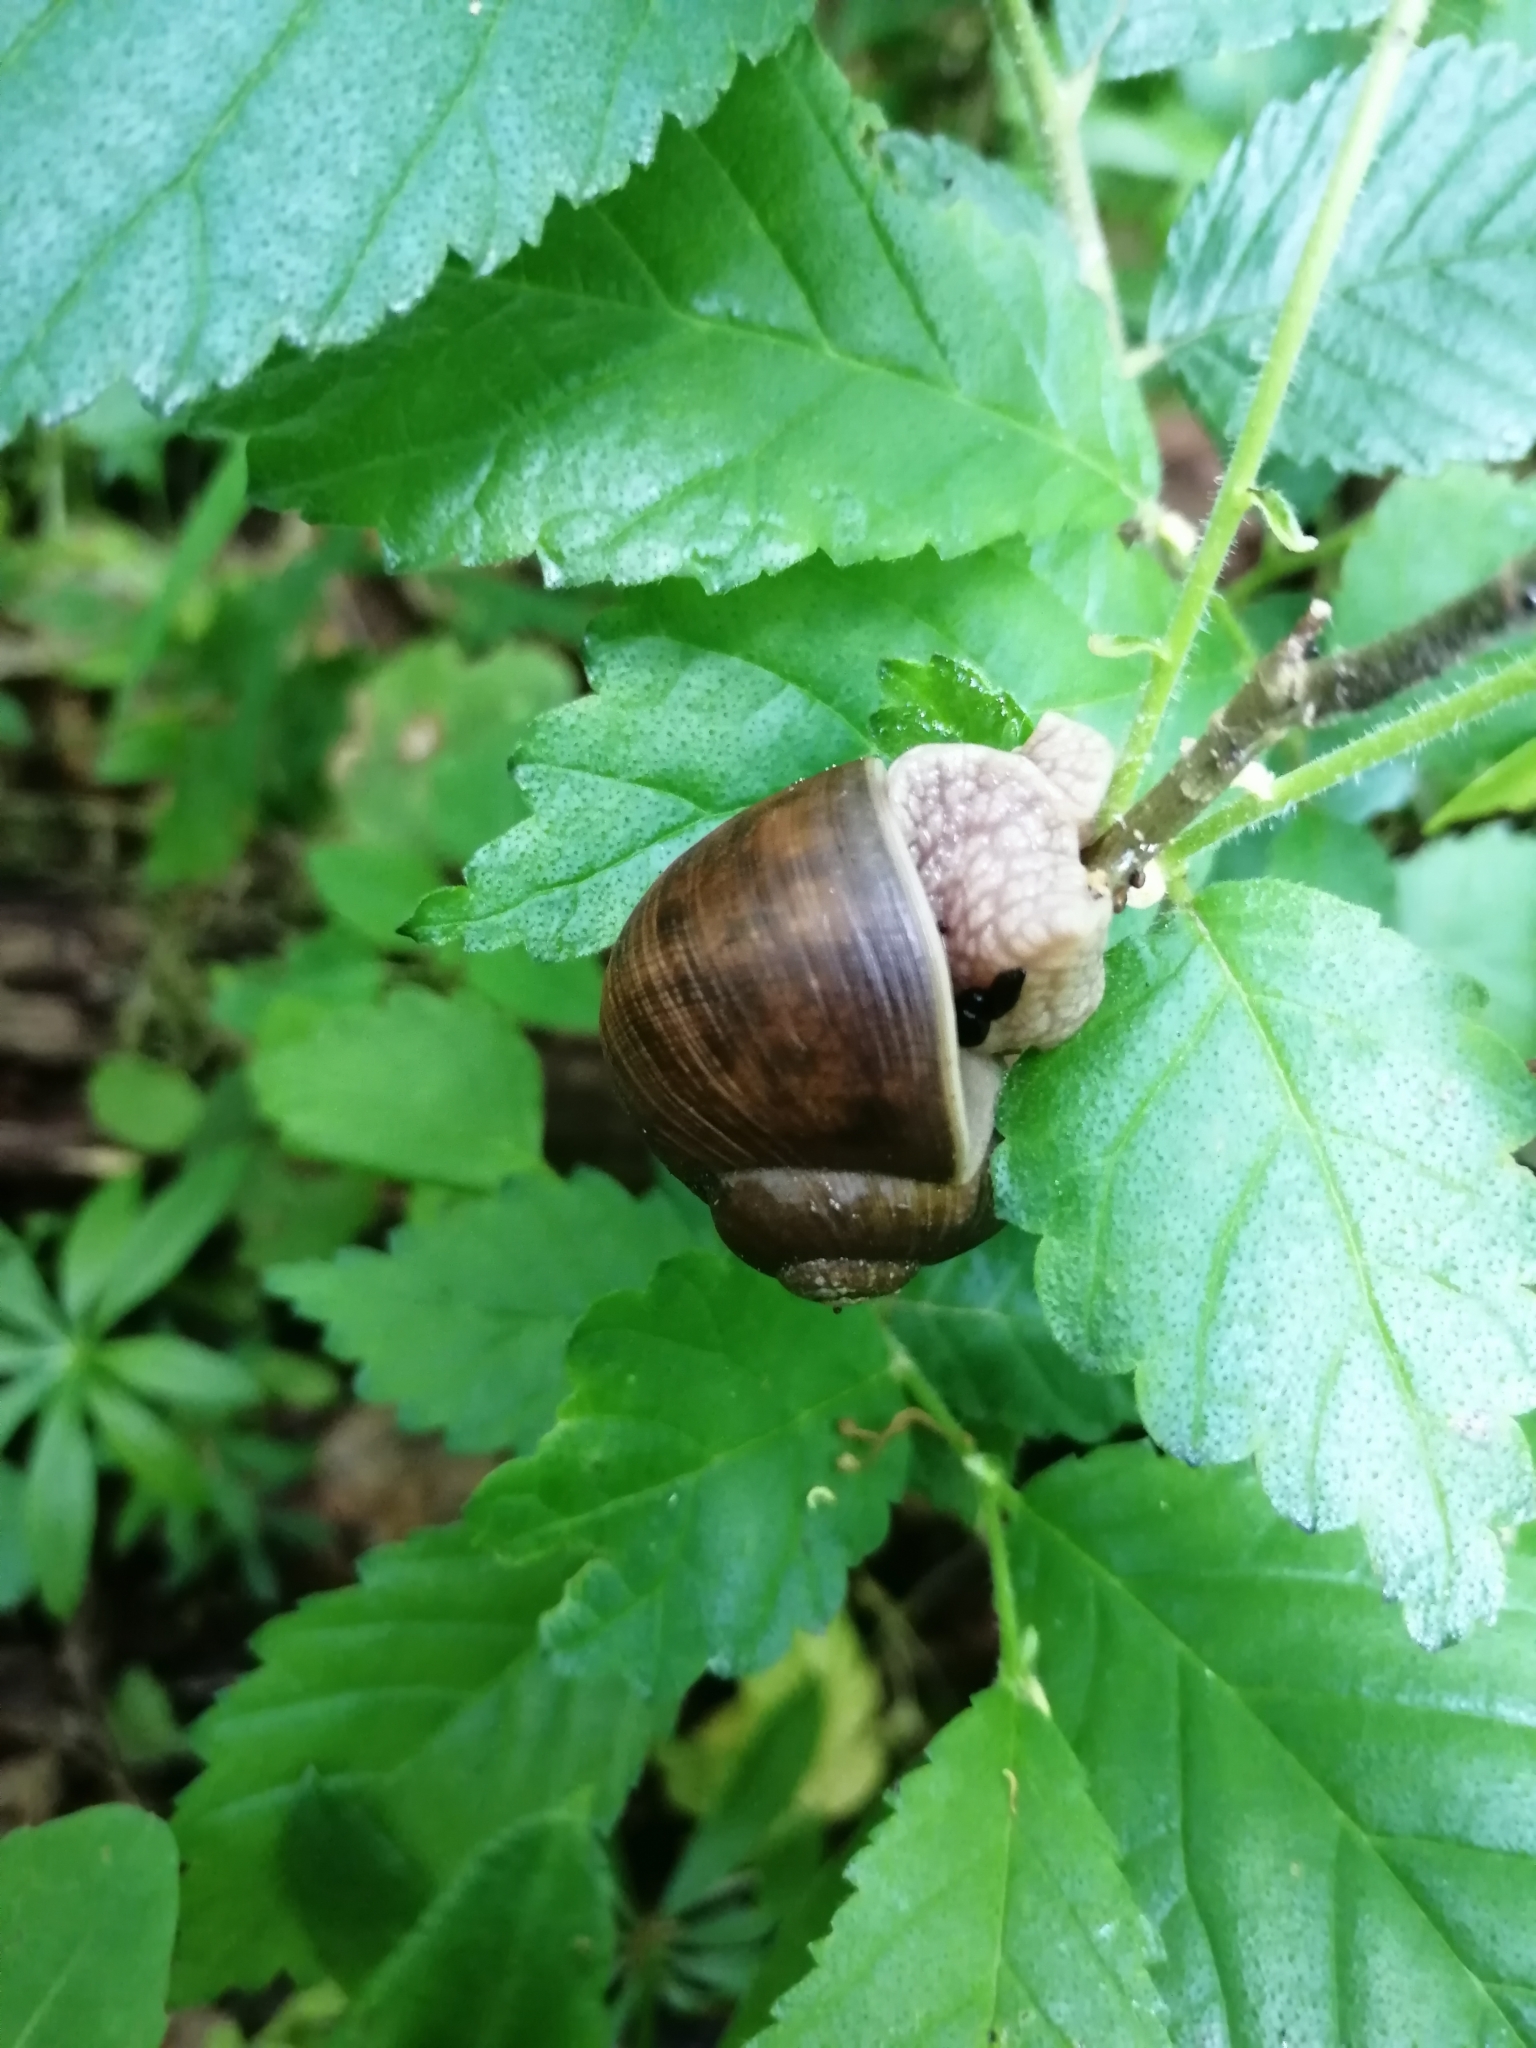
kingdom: Animalia
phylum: Mollusca
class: Gastropoda
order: Stylommatophora
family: Helicidae
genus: Helix
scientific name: Helix pomatia
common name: Roman snail
